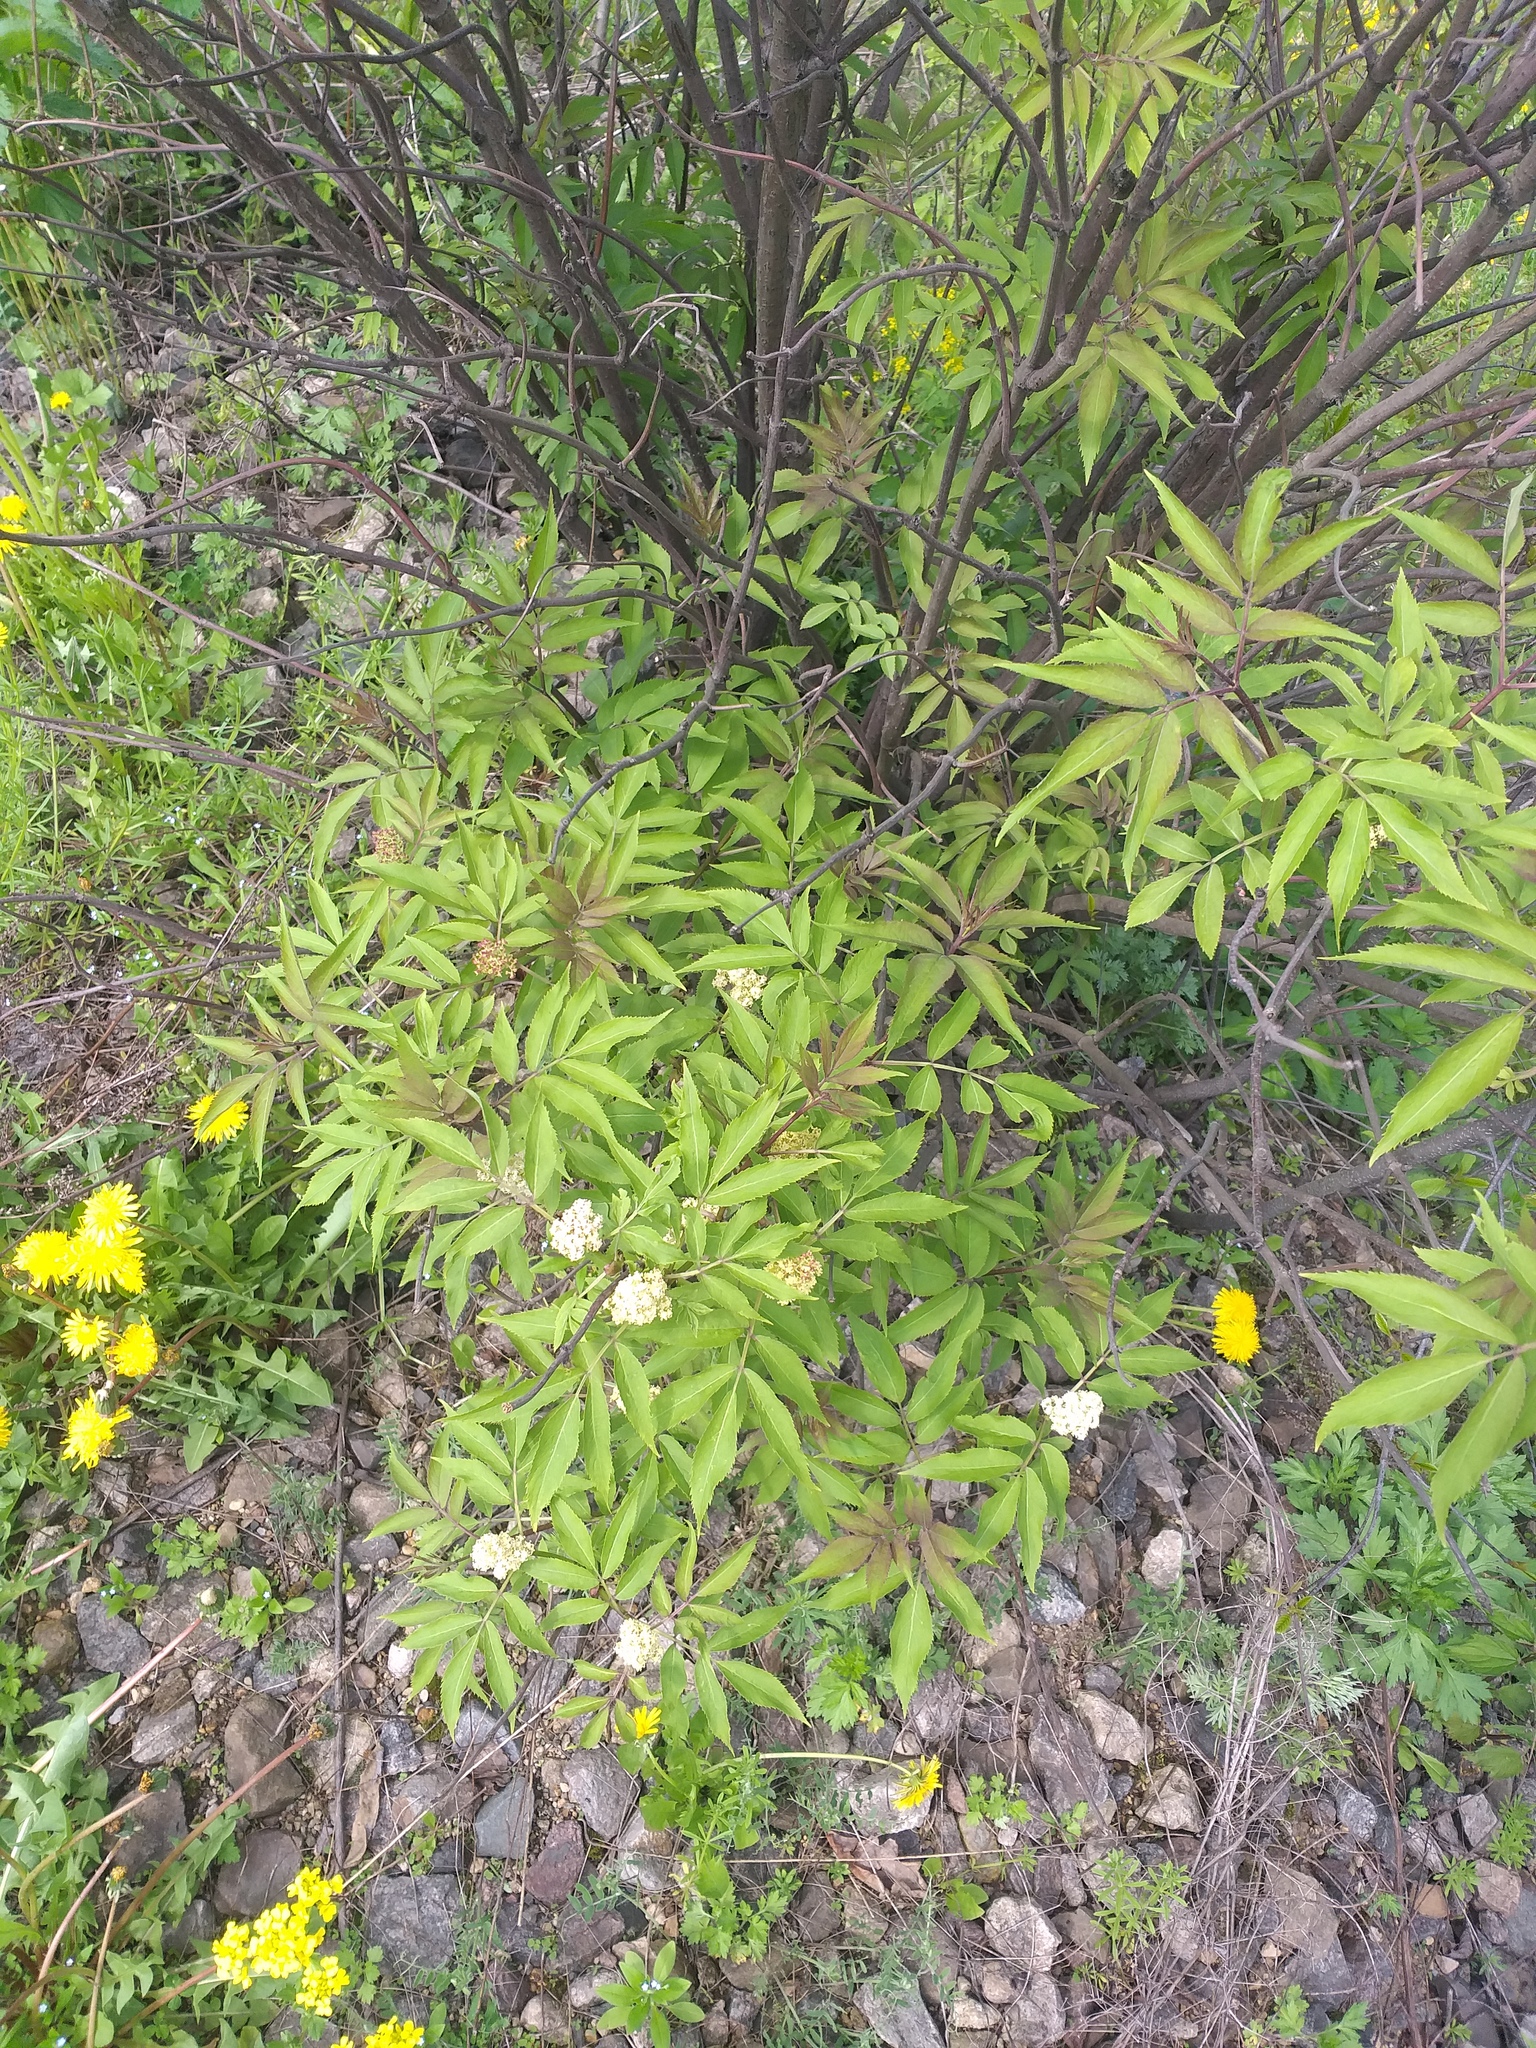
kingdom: Plantae
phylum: Tracheophyta
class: Magnoliopsida
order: Dipsacales
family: Viburnaceae
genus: Sambucus
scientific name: Sambucus racemosa
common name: Red-berried elder
